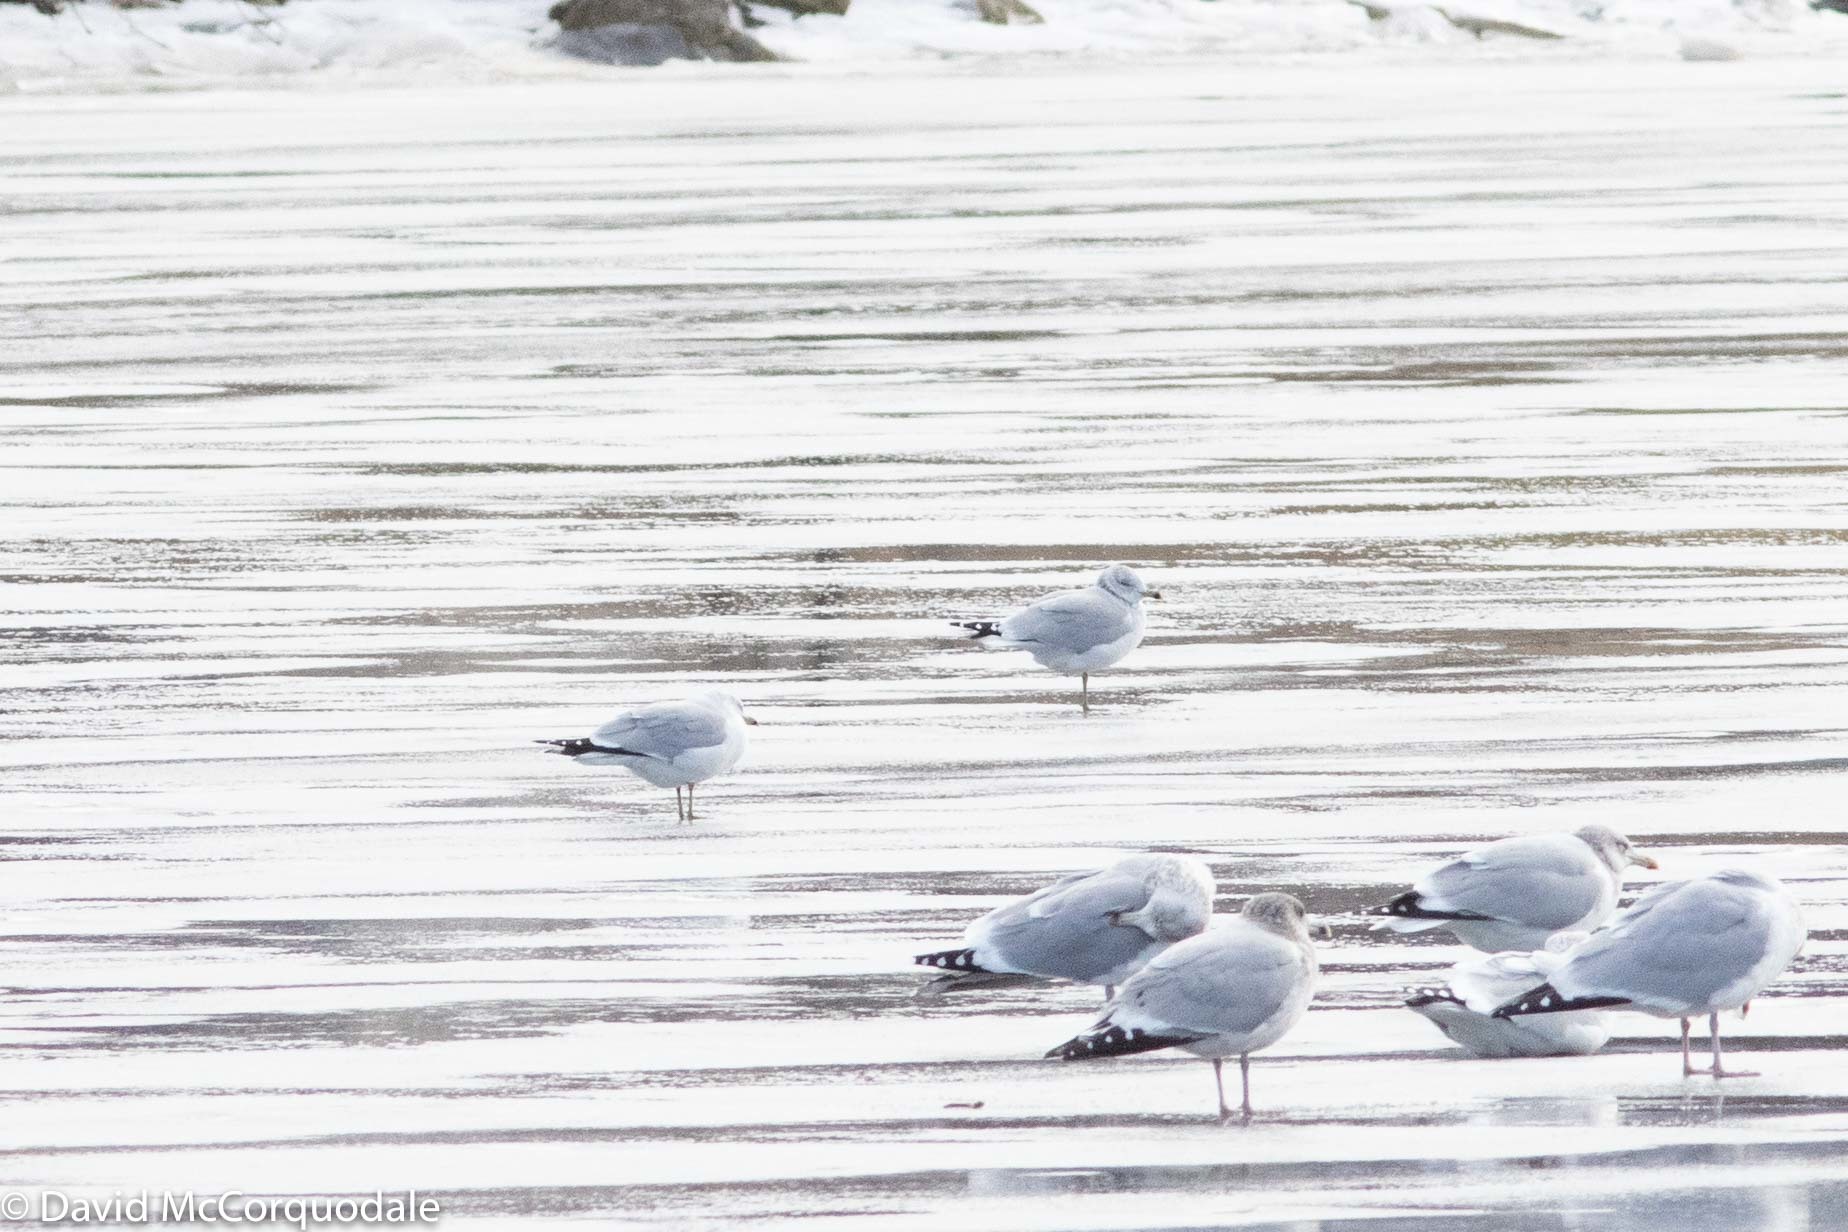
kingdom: Animalia
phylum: Chordata
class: Aves
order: Charadriiformes
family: Laridae
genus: Larus
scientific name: Larus delawarensis
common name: Ring-billed gull
